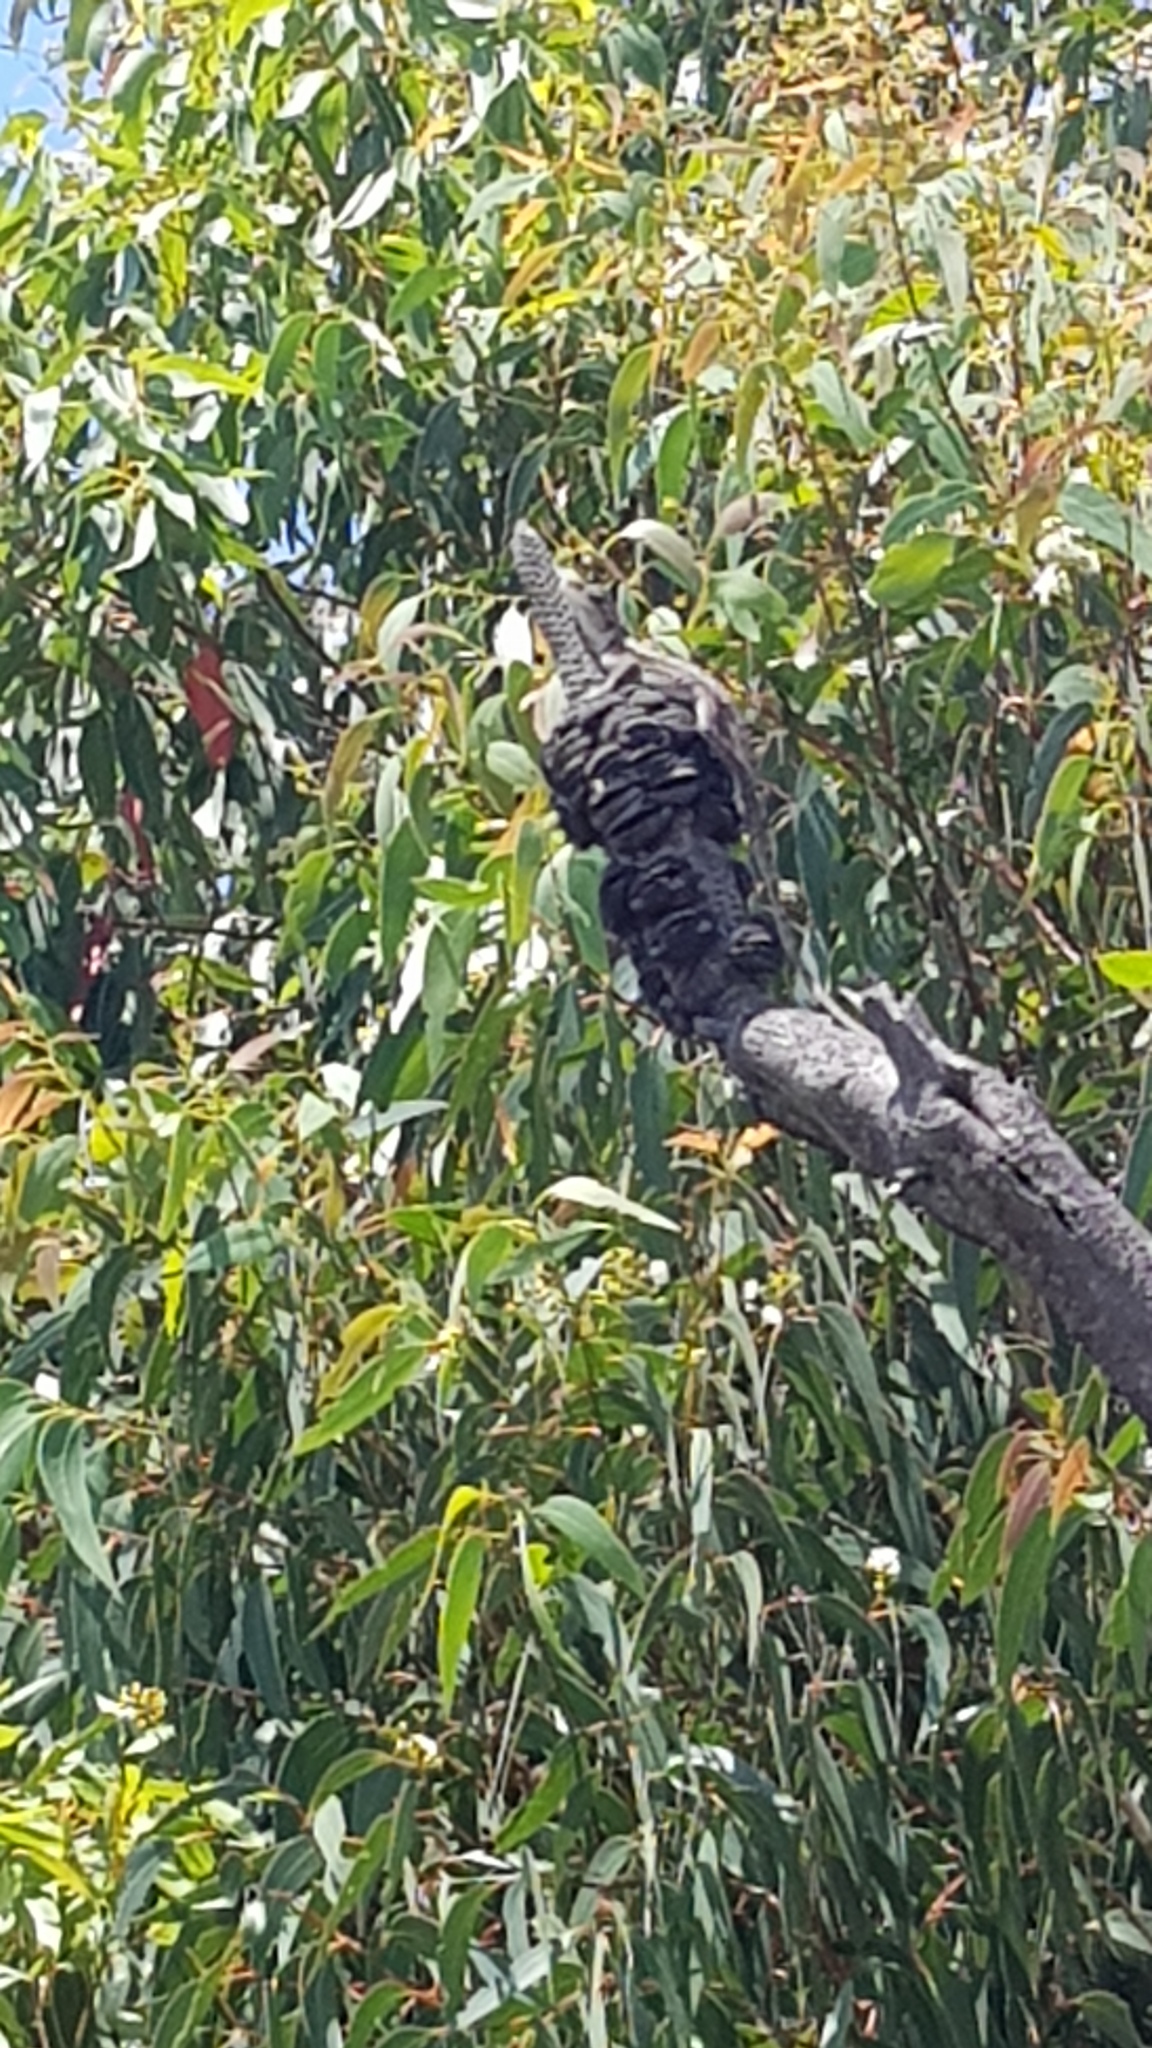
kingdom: Animalia
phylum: Chordata
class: Squamata
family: Agamidae
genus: Amphibolurus
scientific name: Amphibolurus muricatus
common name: Jacky lizard
